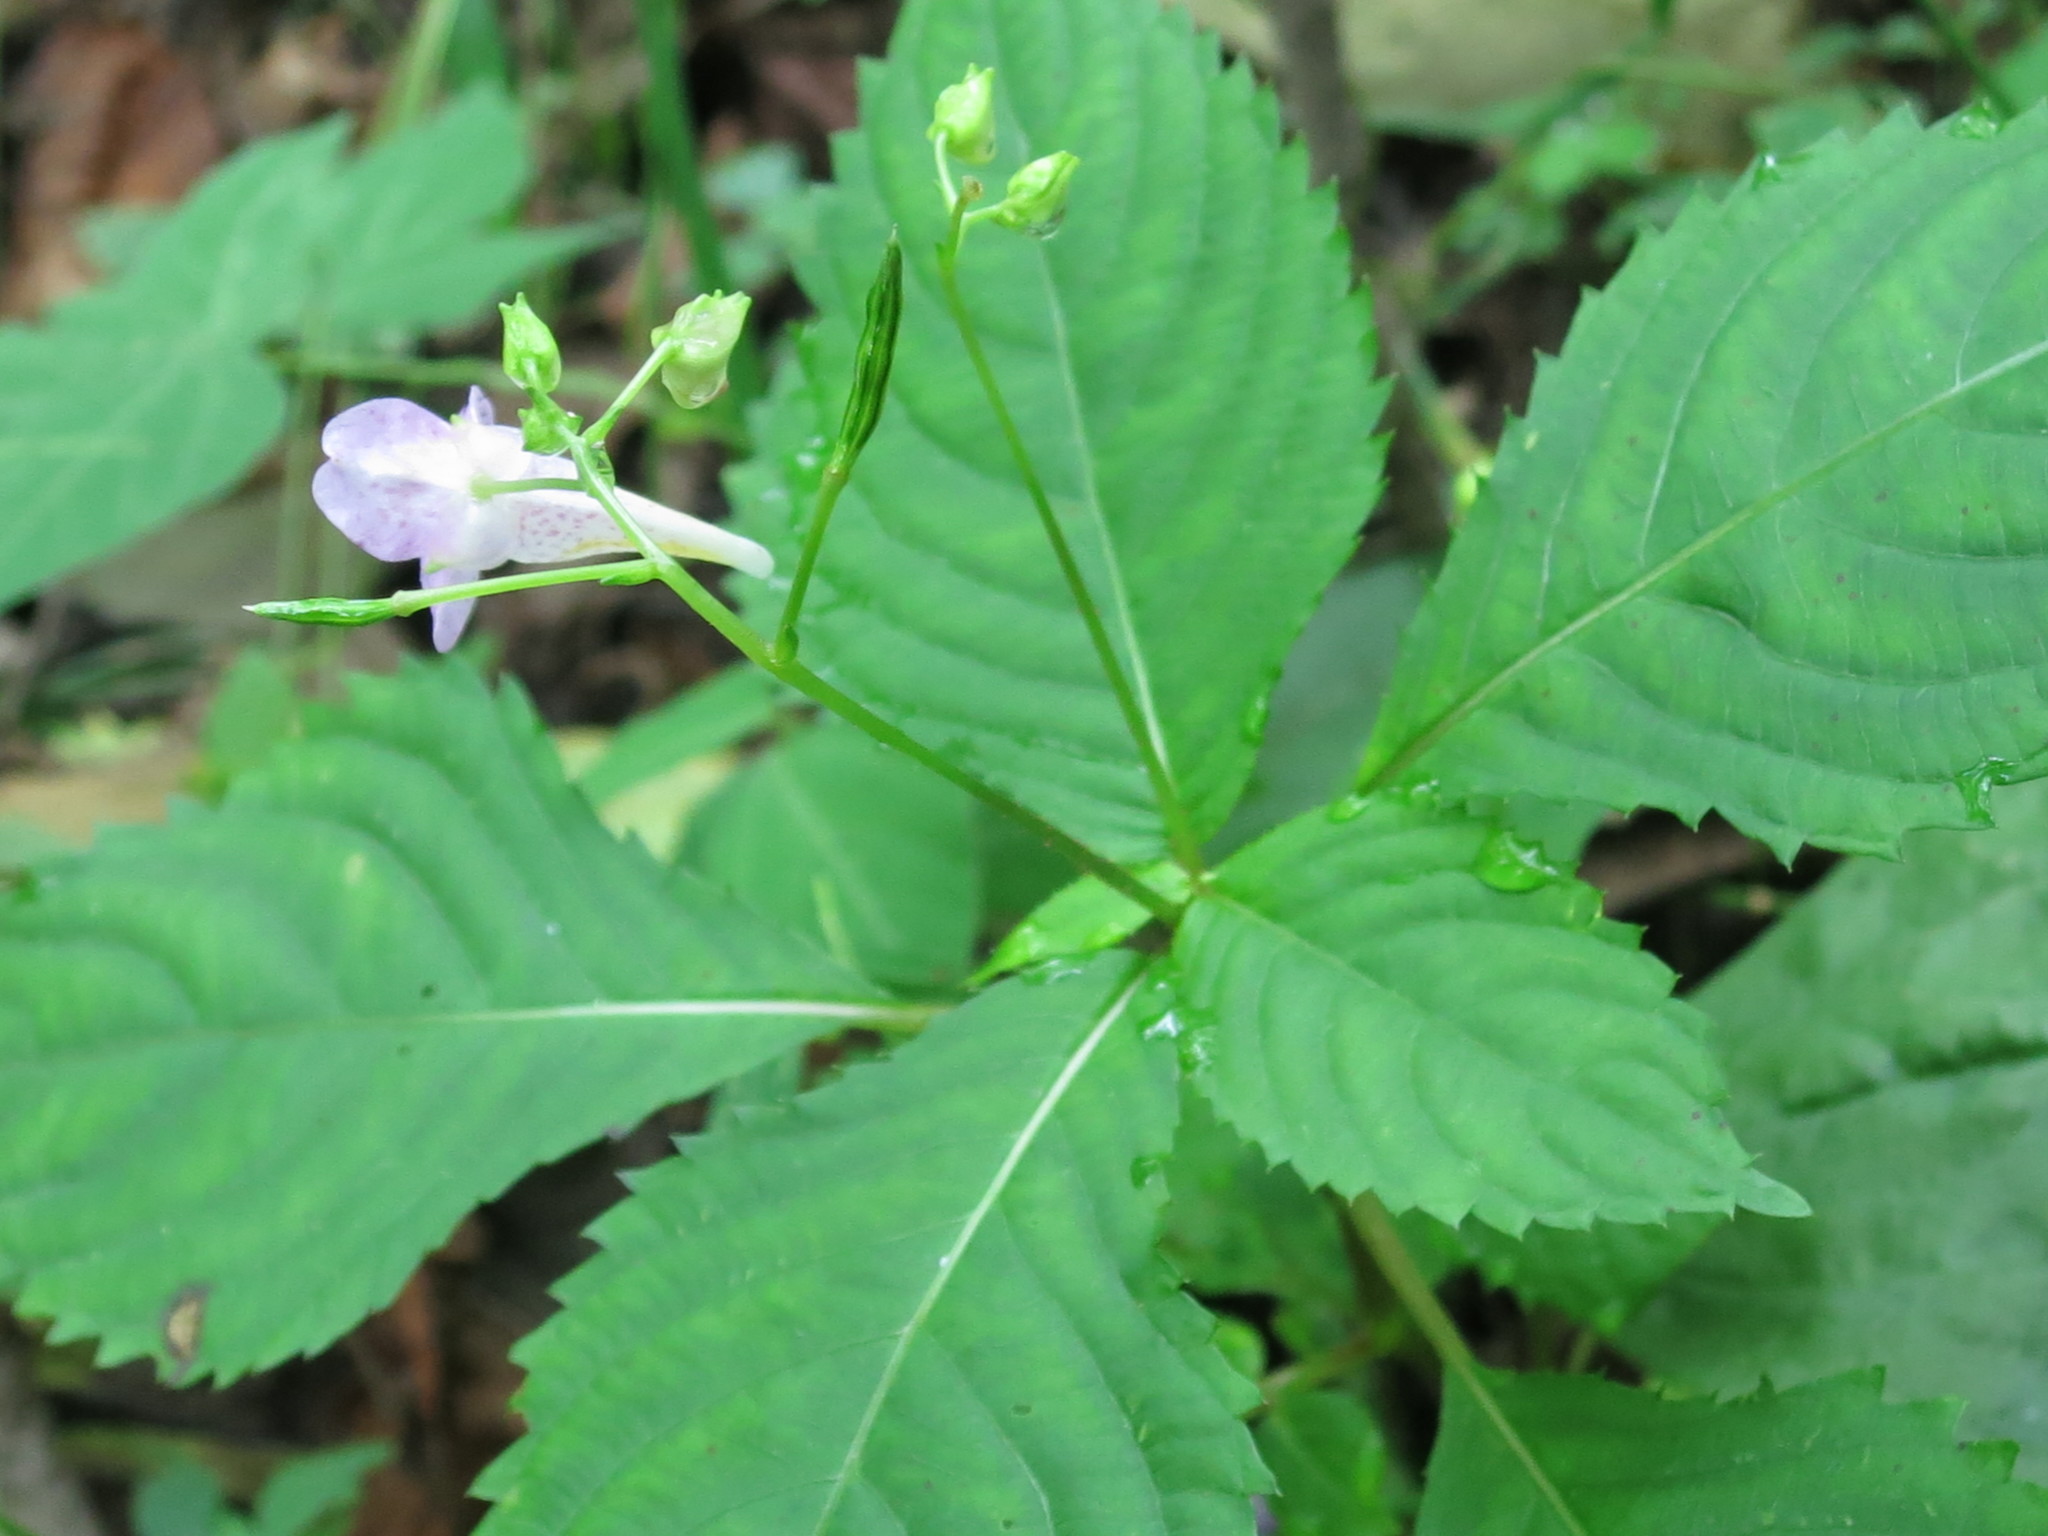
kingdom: Plantae
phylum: Tracheophyta
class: Magnoliopsida
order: Ericales
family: Balsaminaceae
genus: Impatiens
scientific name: Impatiens furcillata
